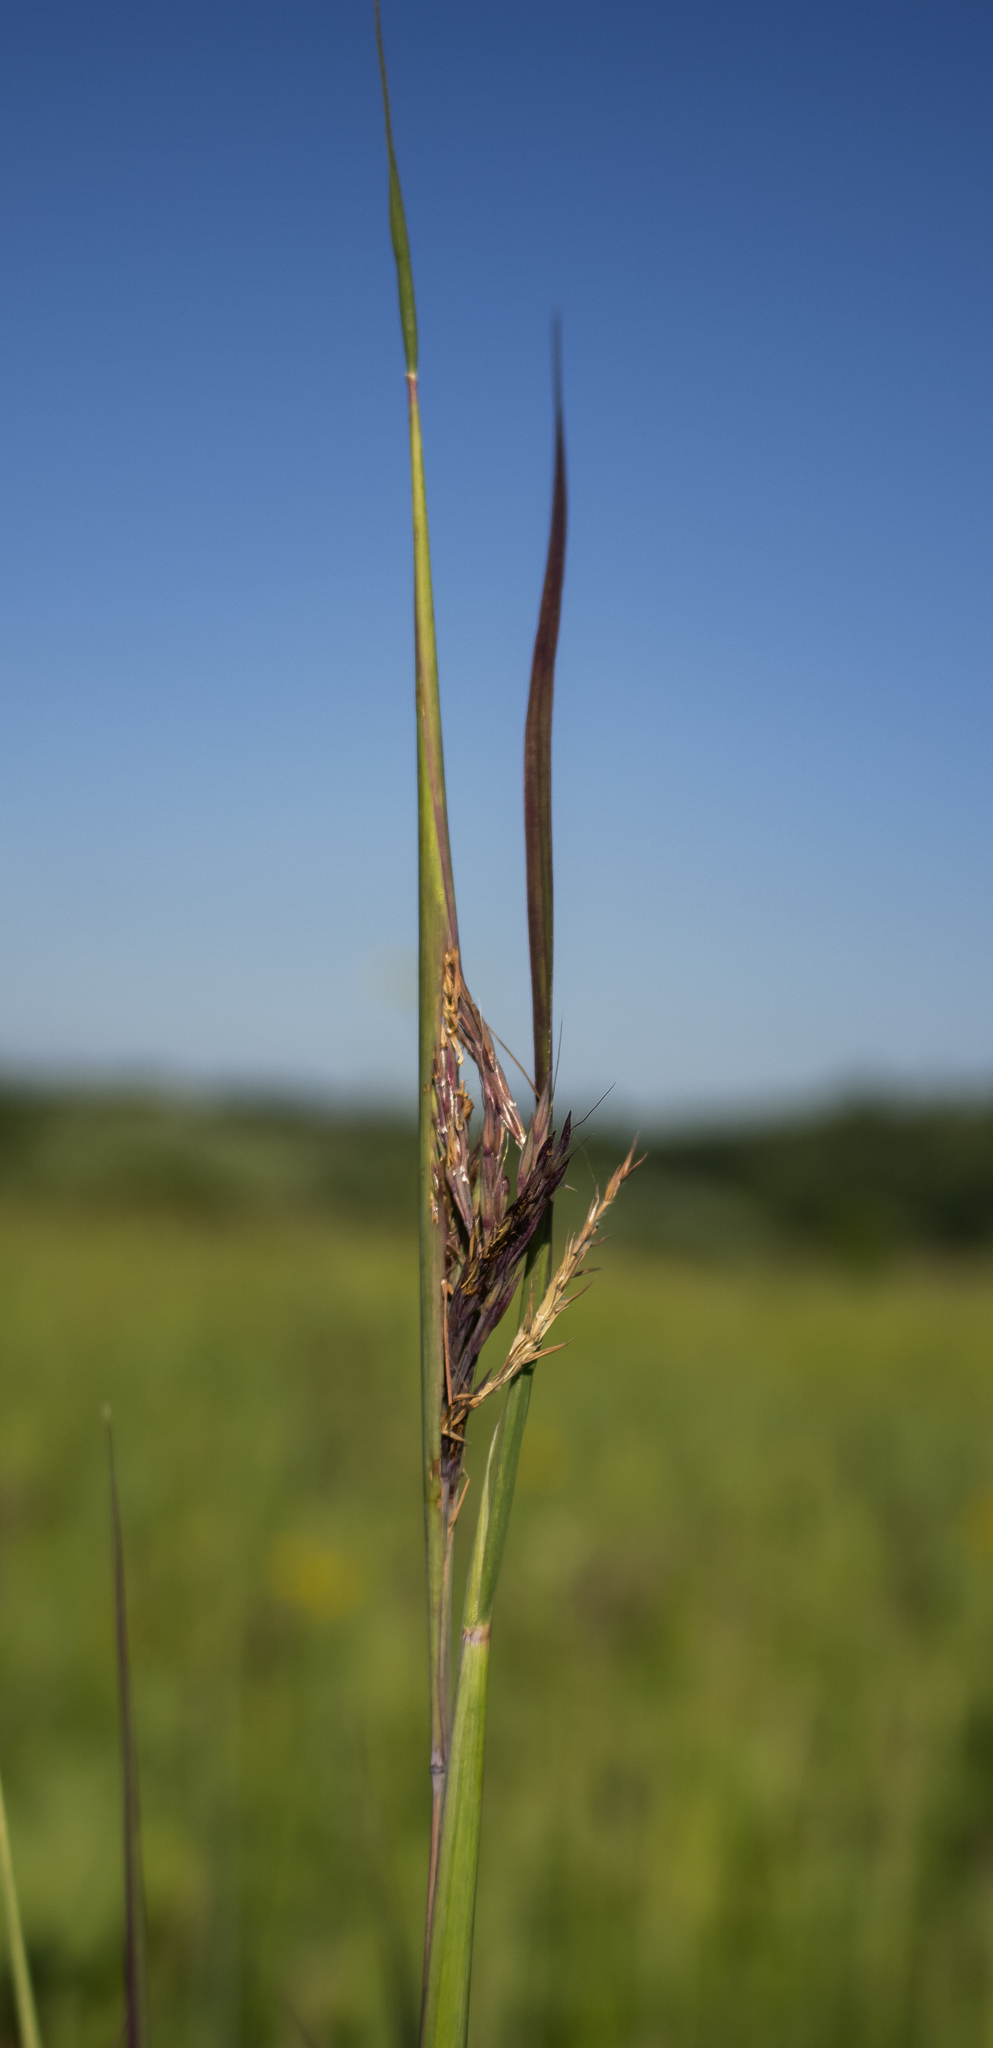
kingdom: Plantae
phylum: Tracheophyta
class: Liliopsida
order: Poales
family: Poaceae
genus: Andropogon
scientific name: Andropogon gerardi
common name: Big bluestem
